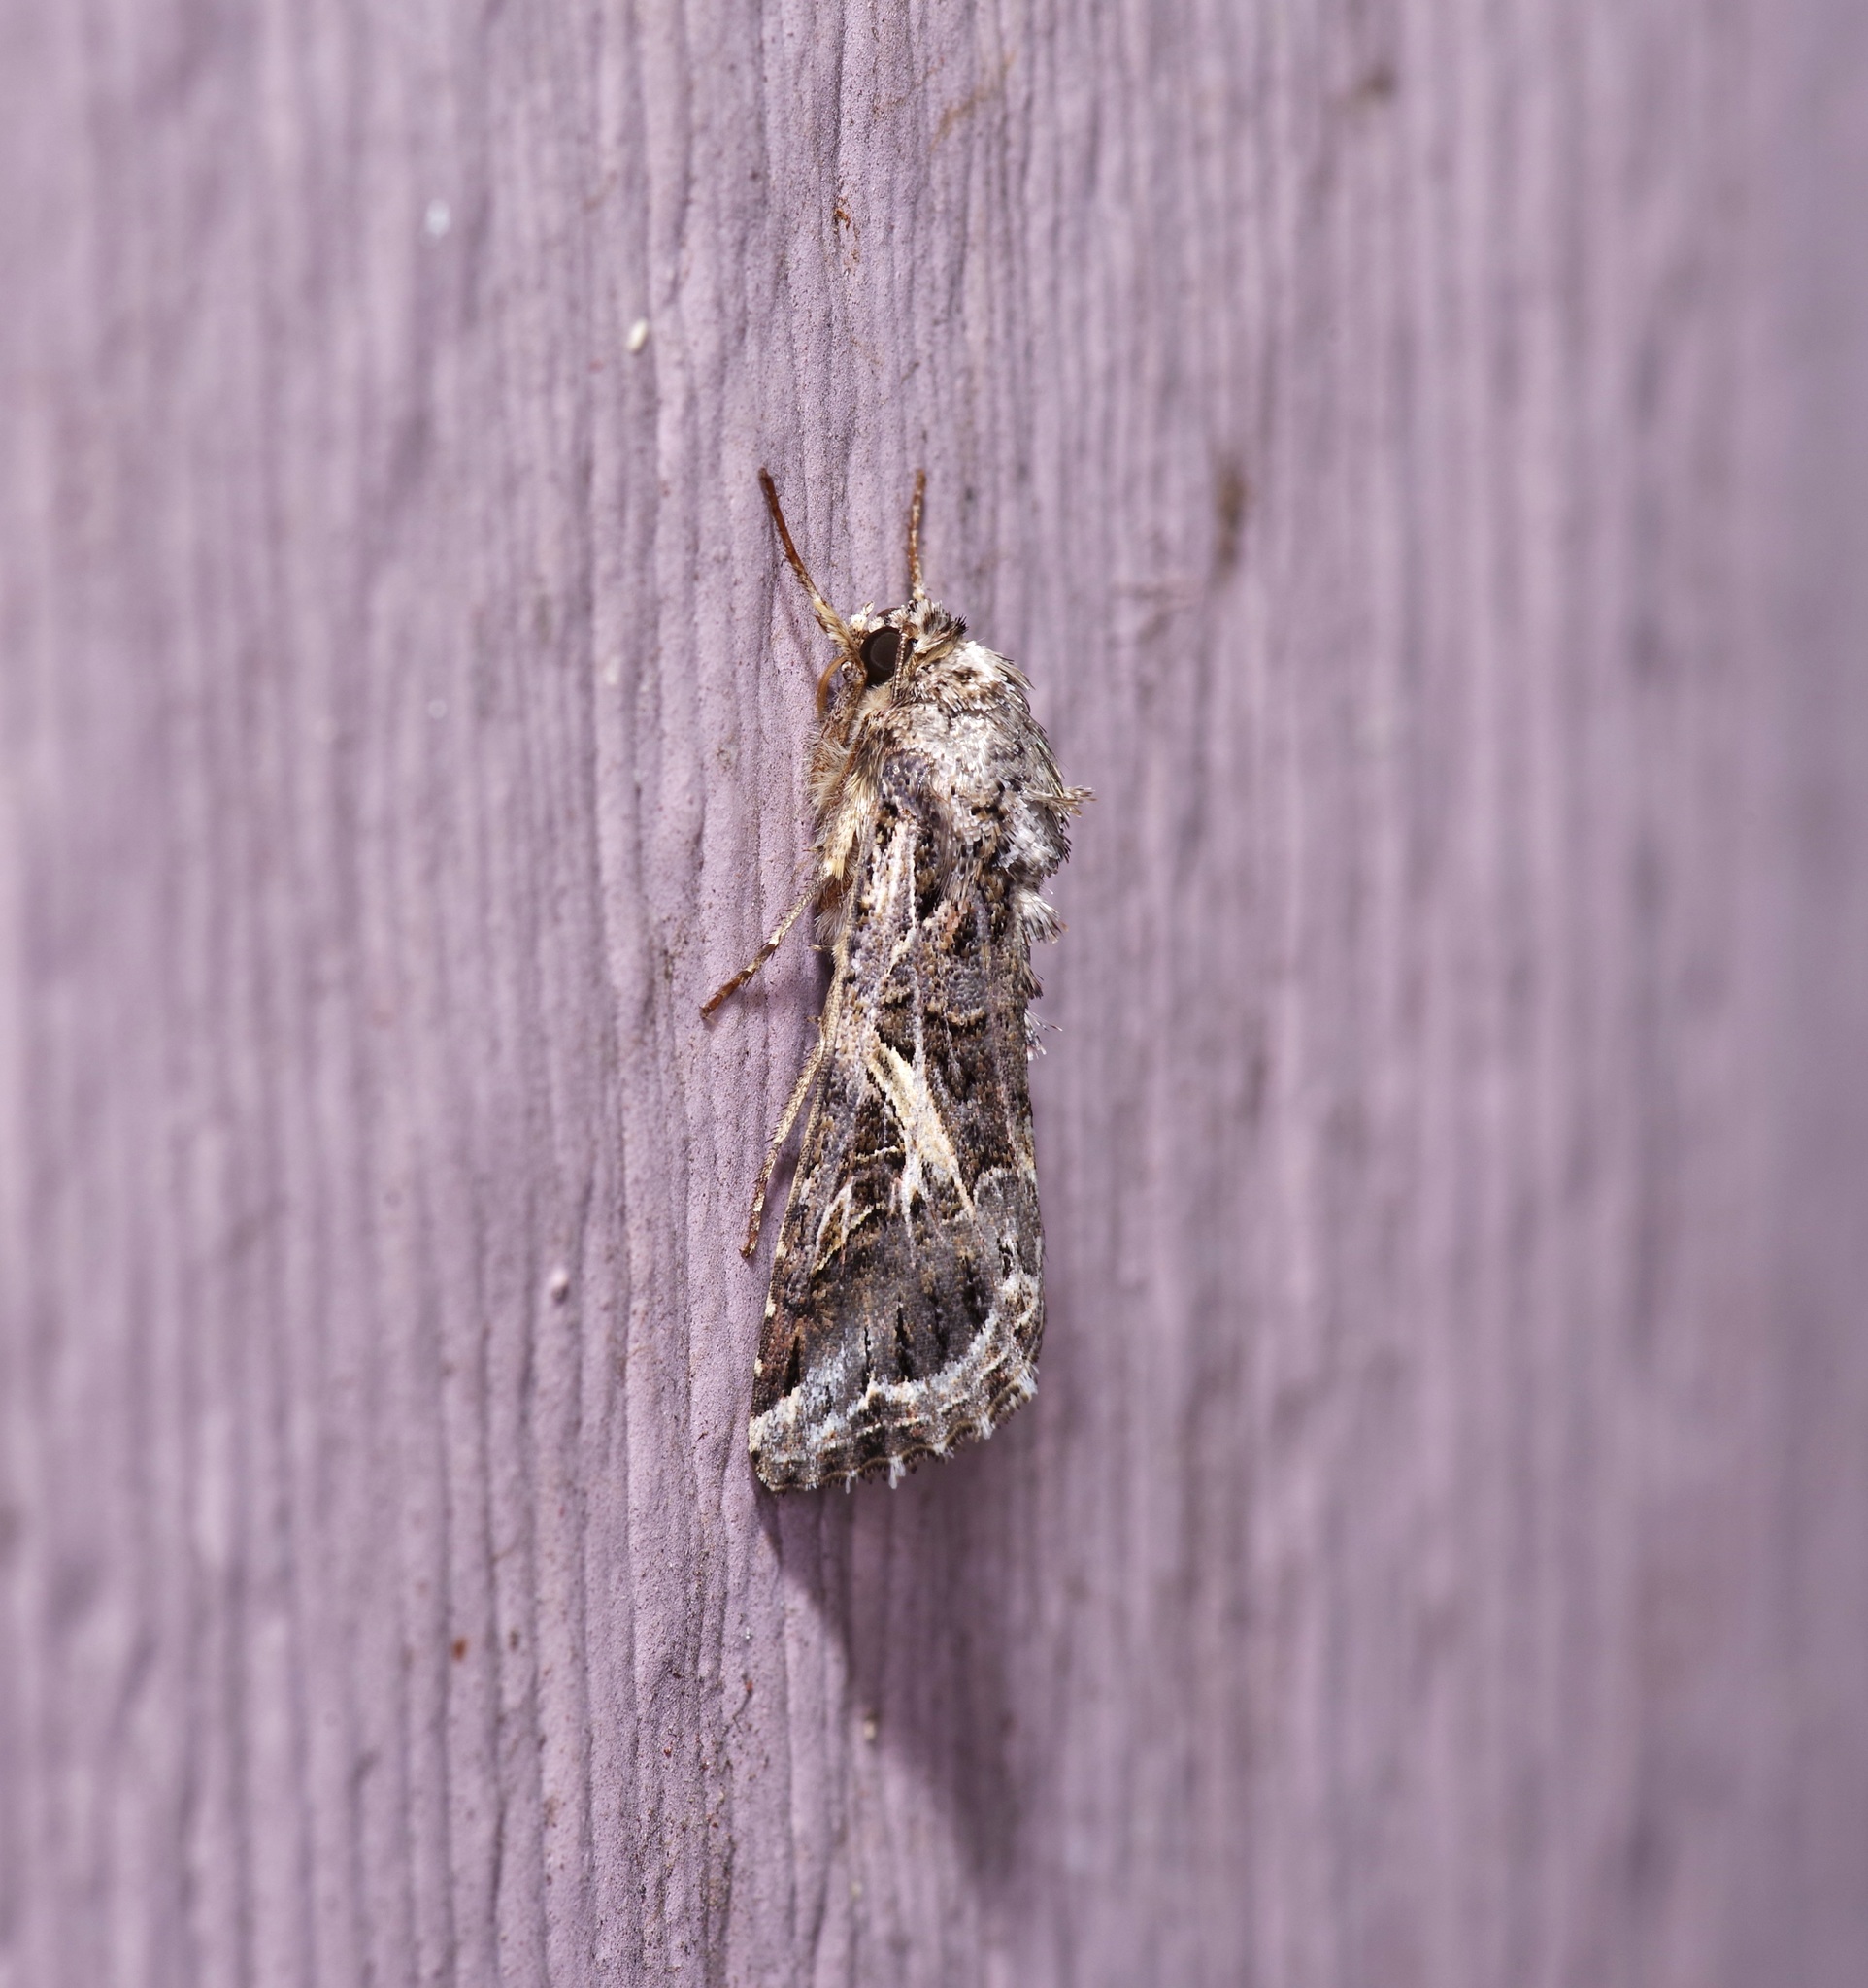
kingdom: Animalia
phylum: Arthropoda
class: Insecta
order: Lepidoptera
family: Noctuidae
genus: Spodoptera
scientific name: Spodoptera ornithogalli
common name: Yellow-striped armyworm
